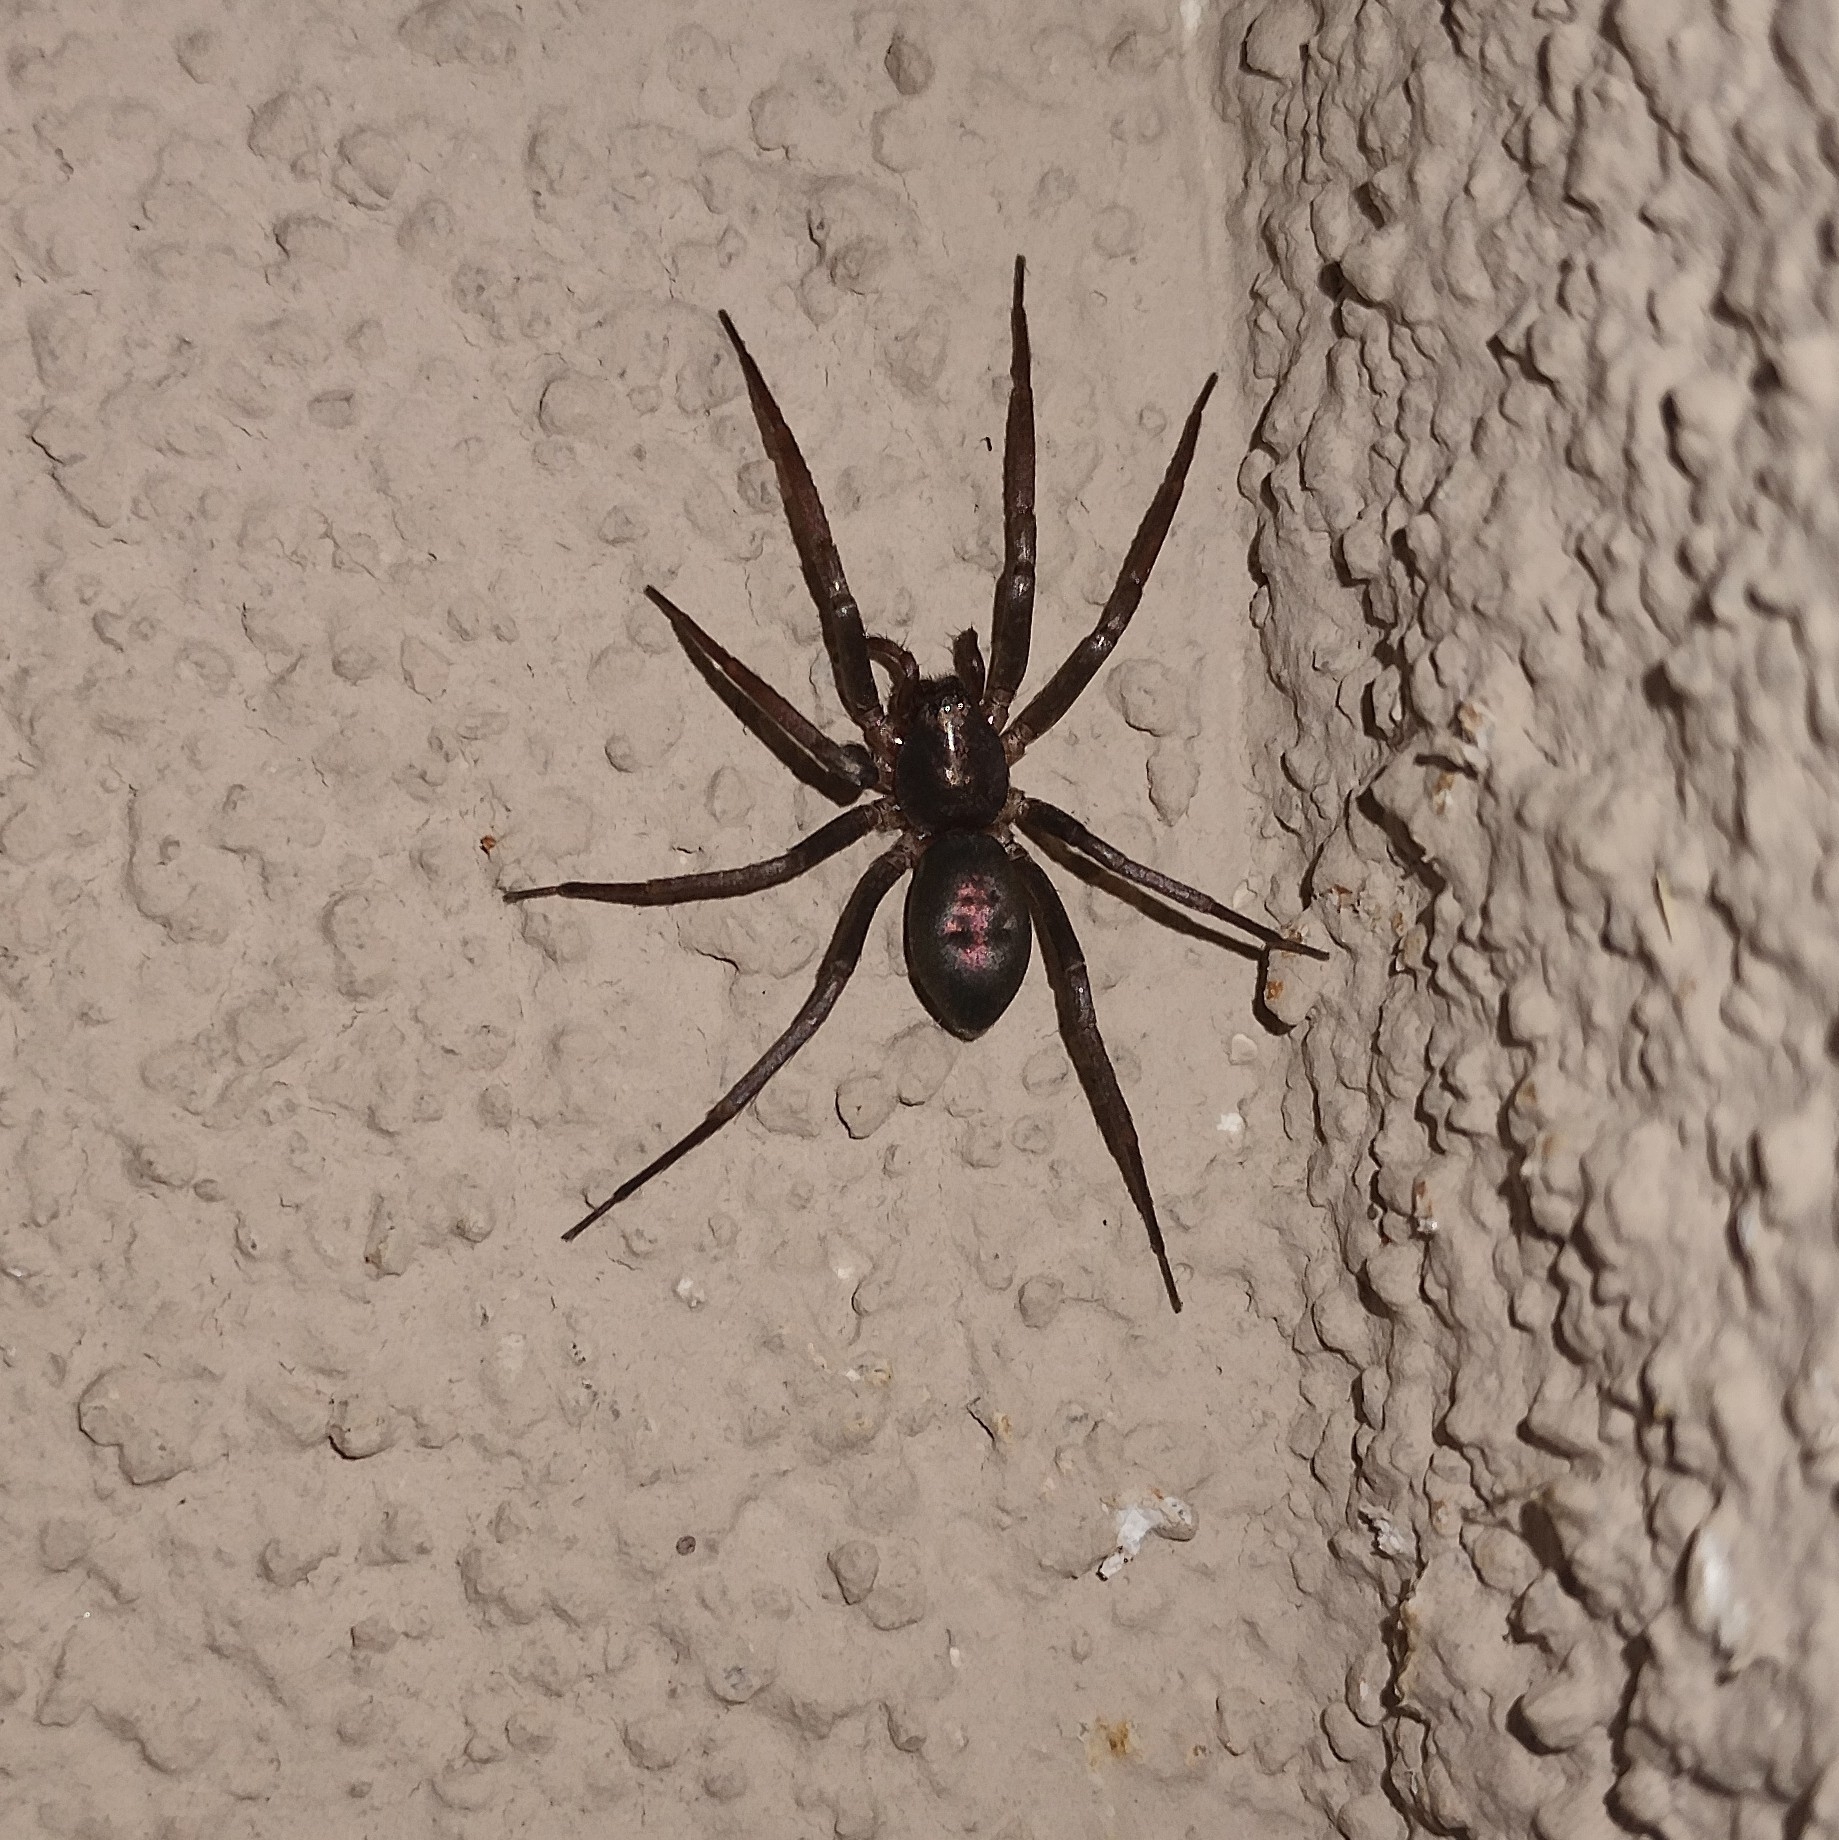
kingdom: Animalia
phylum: Arthropoda
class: Arachnida
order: Araneae
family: Liocranidae
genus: Sagana
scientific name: Sagana rutilans
